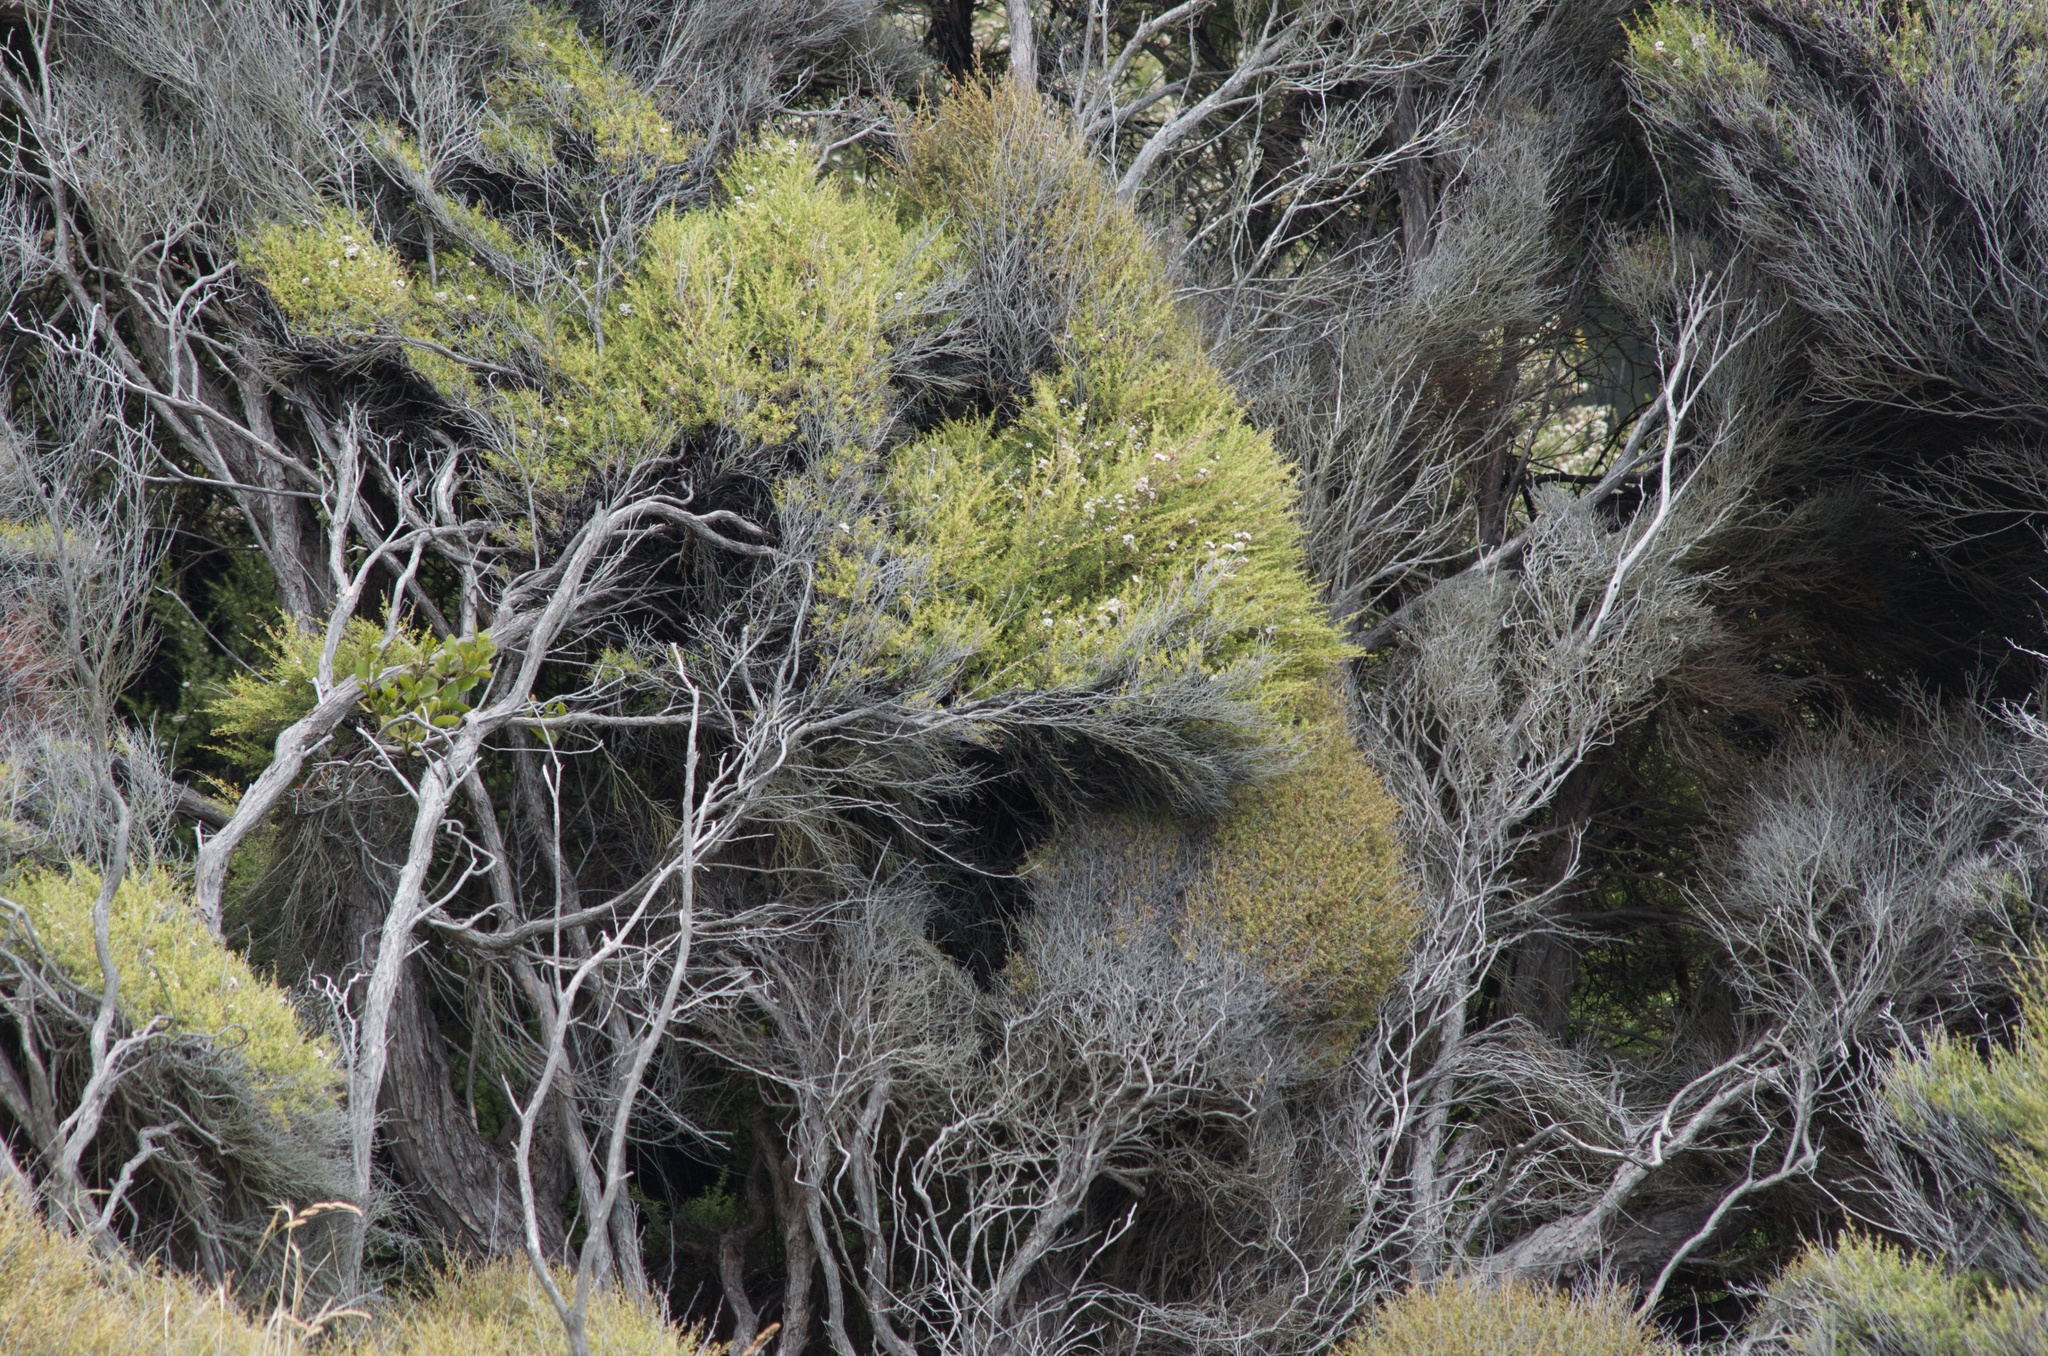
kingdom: Plantae
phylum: Tracheophyta
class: Magnoliopsida
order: Myrtales
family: Myrtaceae
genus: Kunzea
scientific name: Kunzea robusta
